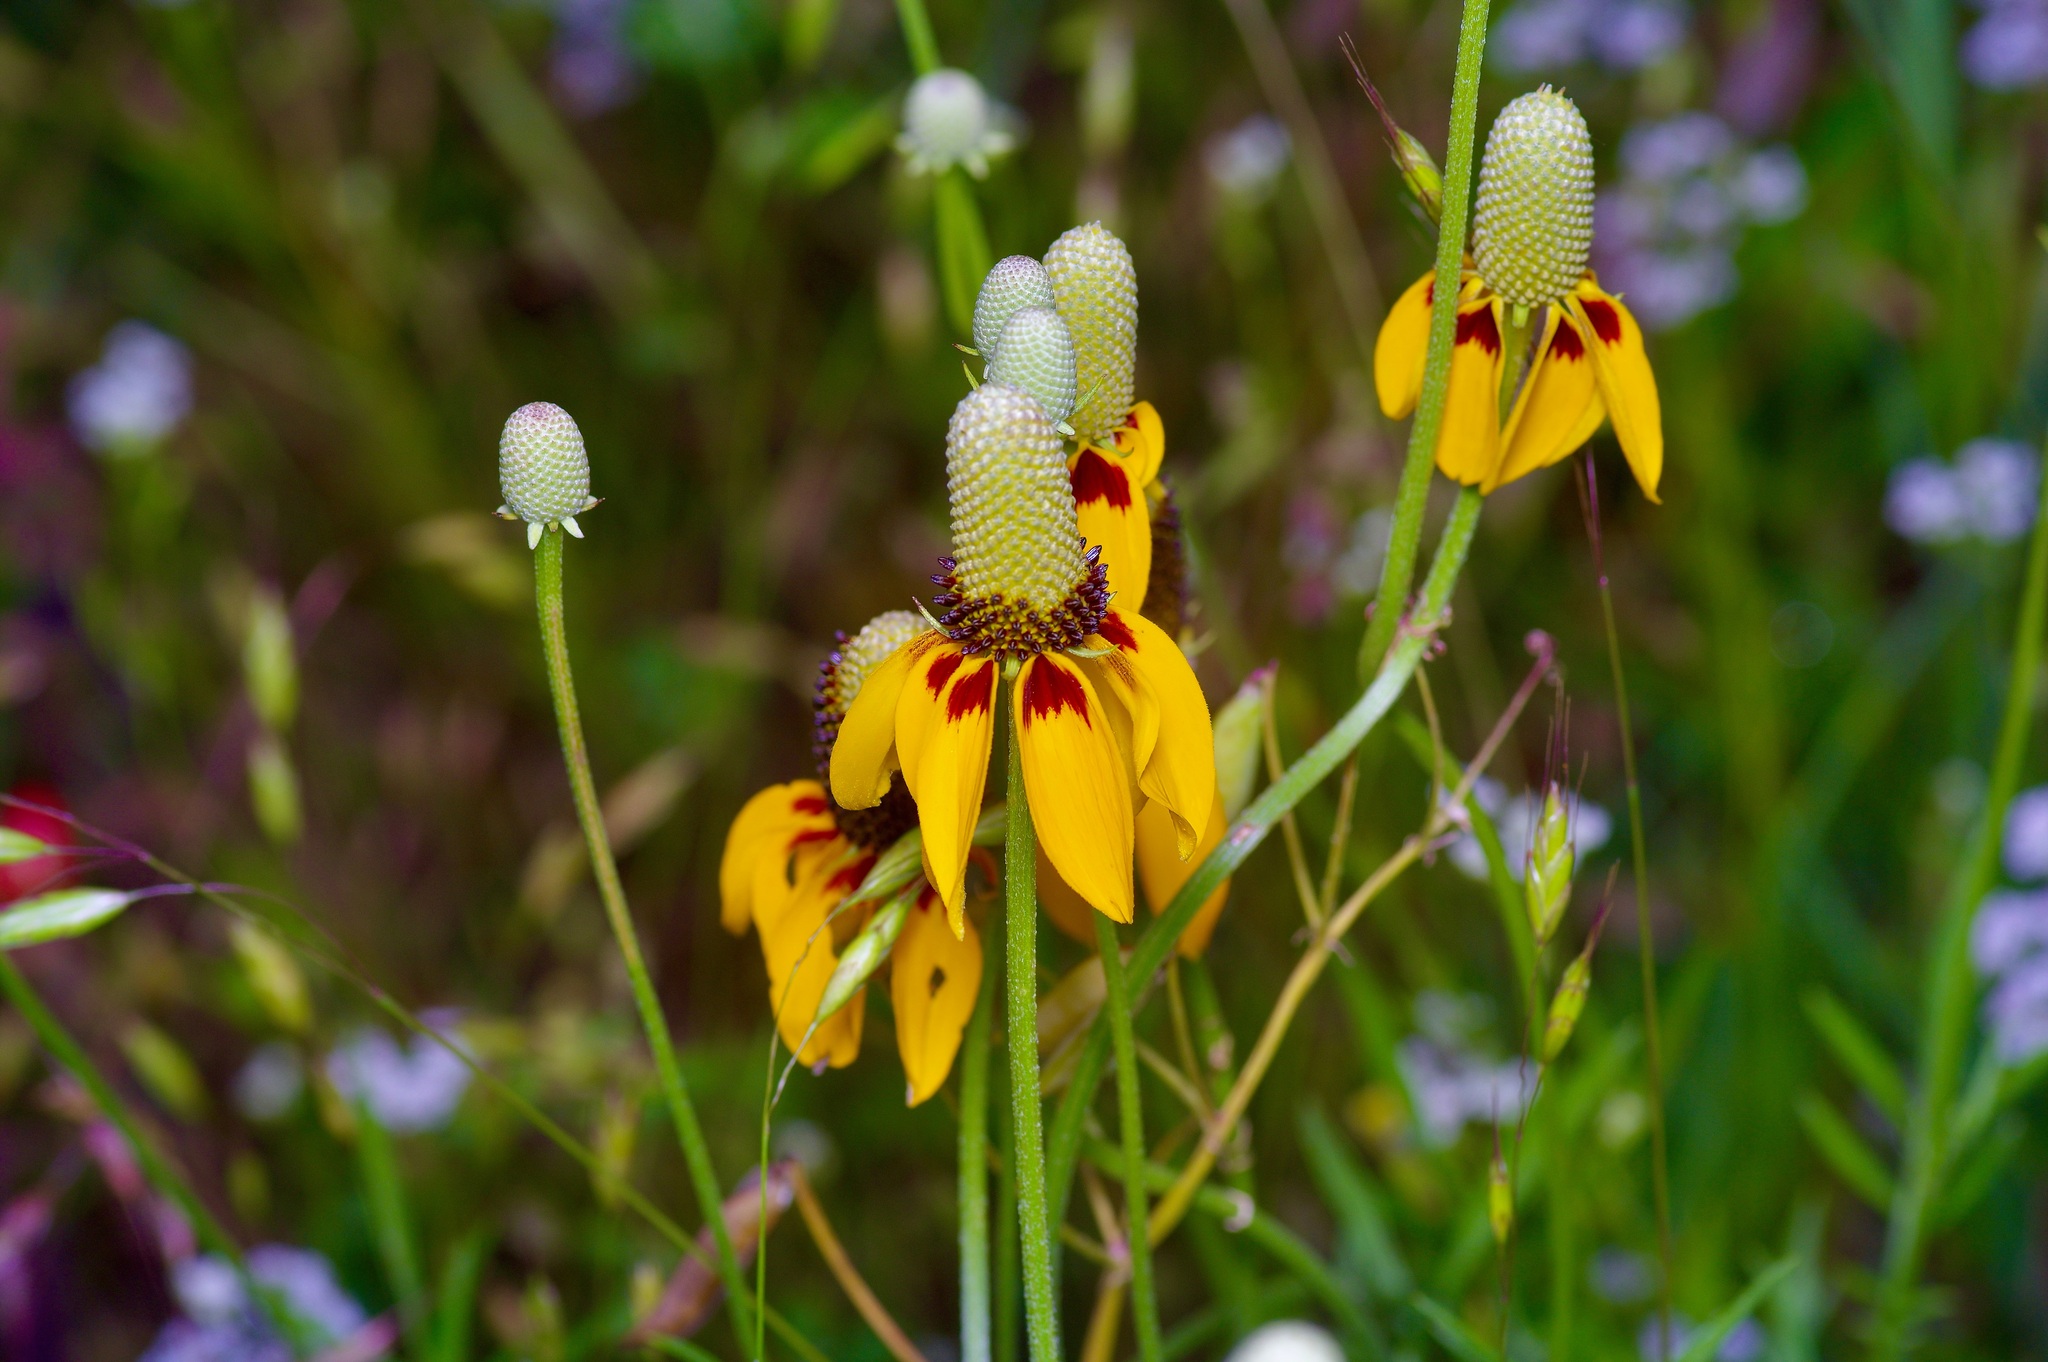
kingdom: Plantae
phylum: Tracheophyta
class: Magnoliopsida
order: Asterales
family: Asteraceae
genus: Ratibida
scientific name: Ratibida columnifera
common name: Prairie coneflower
